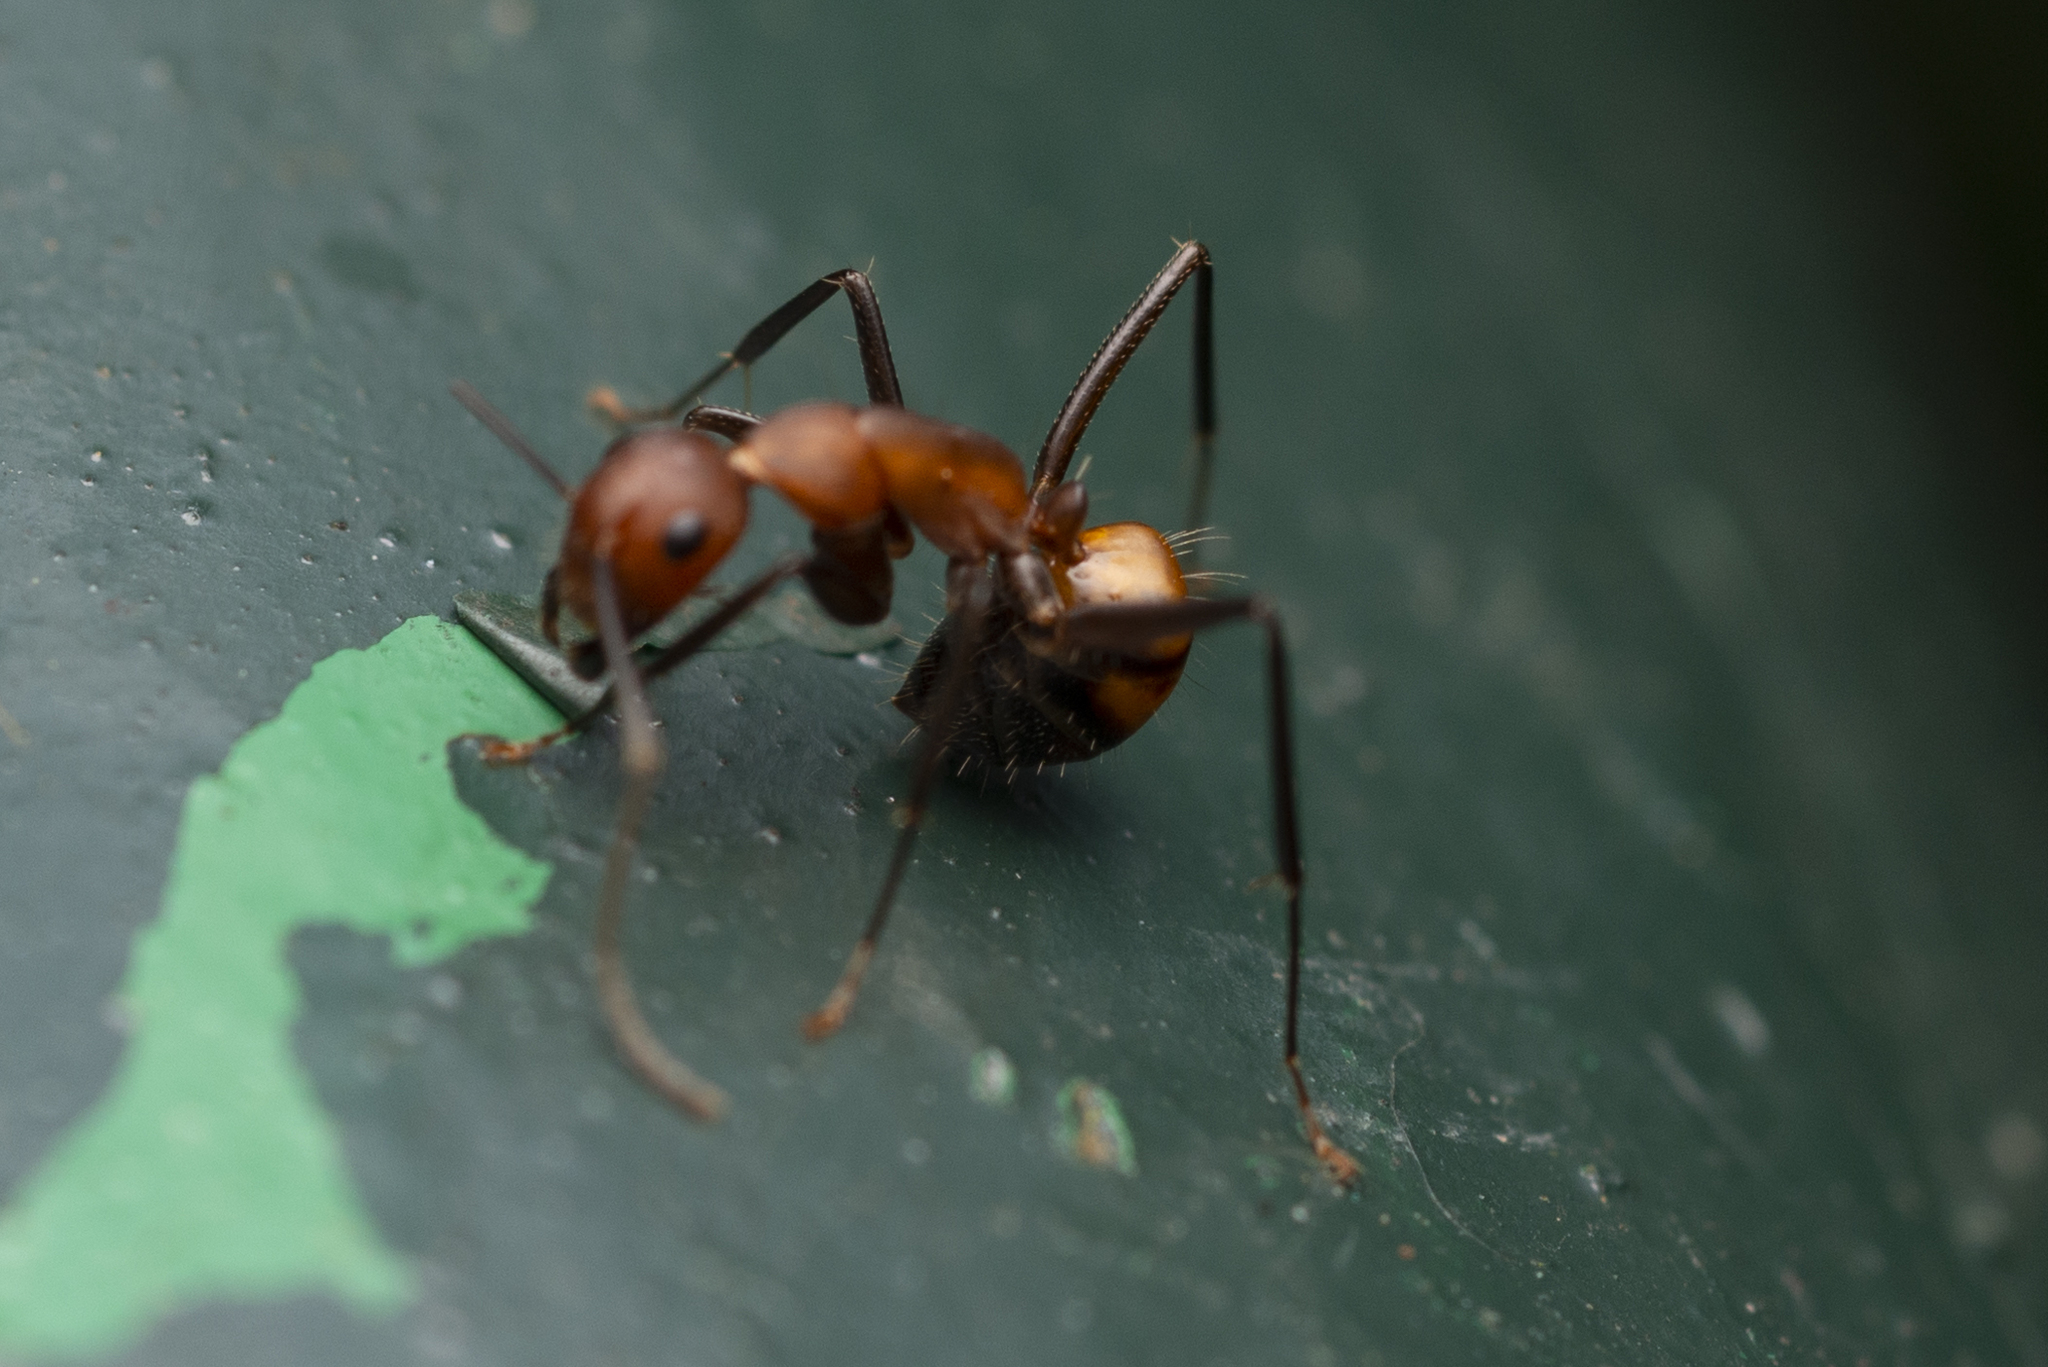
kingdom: Animalia
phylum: Arthropoda
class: Insecta
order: Hymenoptera
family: Formicidae
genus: Camponotus
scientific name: Camponotus nicobarensis
